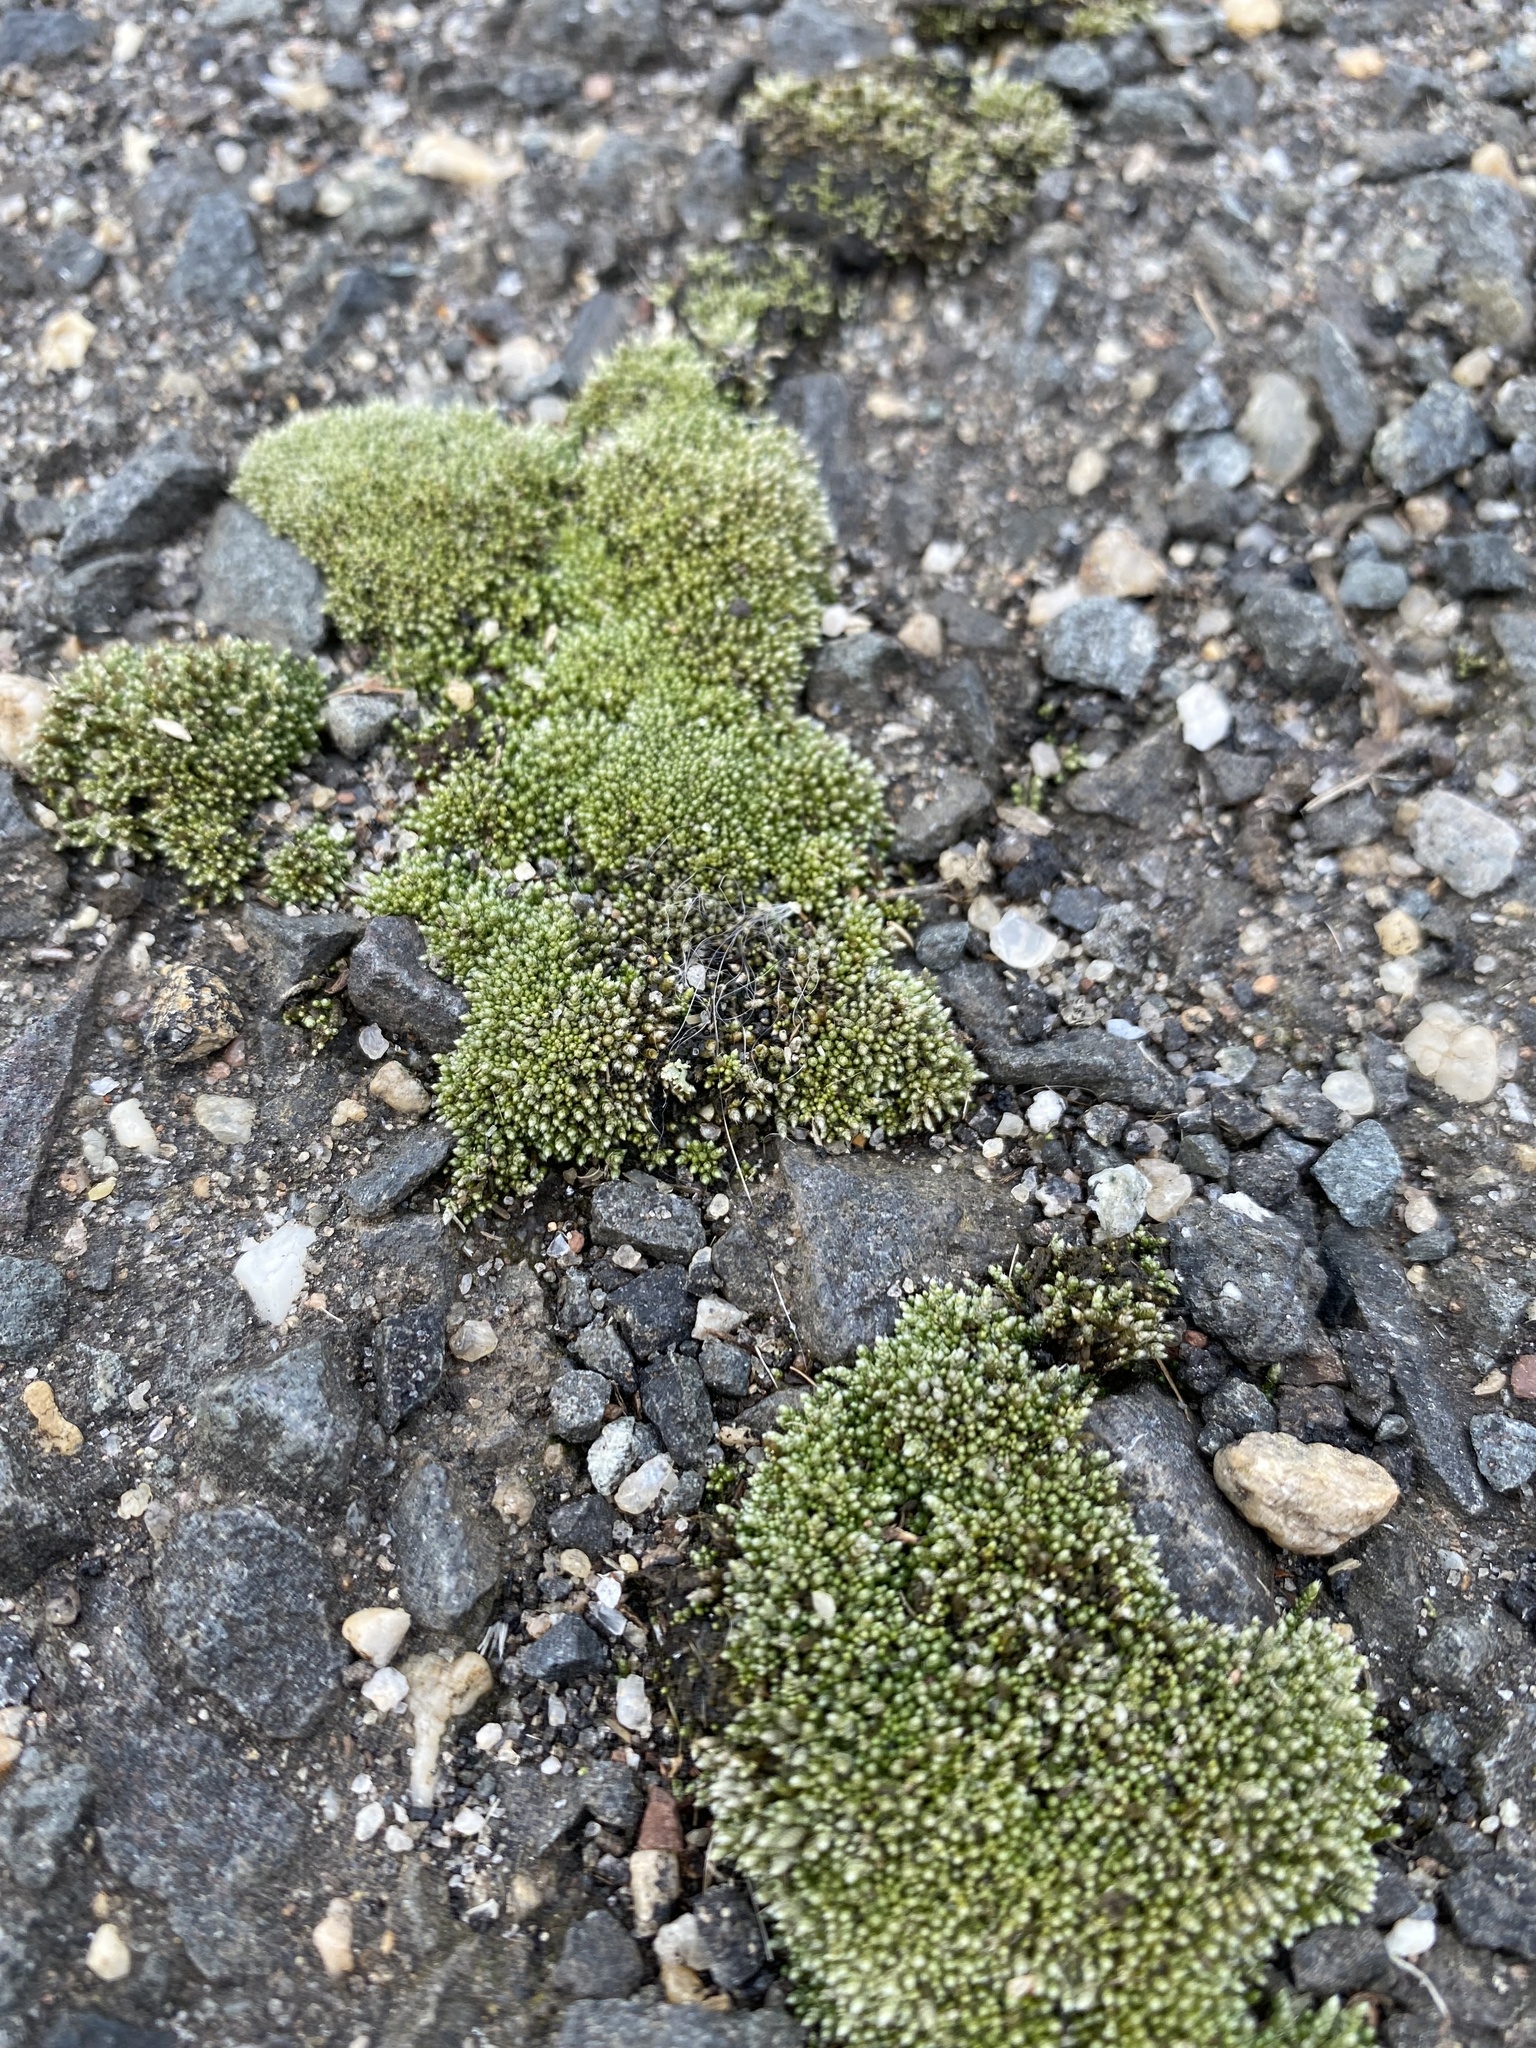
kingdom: Plantae
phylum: Bryophyta
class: Bryopsida
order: Bryales
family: Bryaceae
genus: Bryum
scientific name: Bryum argenteum
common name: Silver-moss
